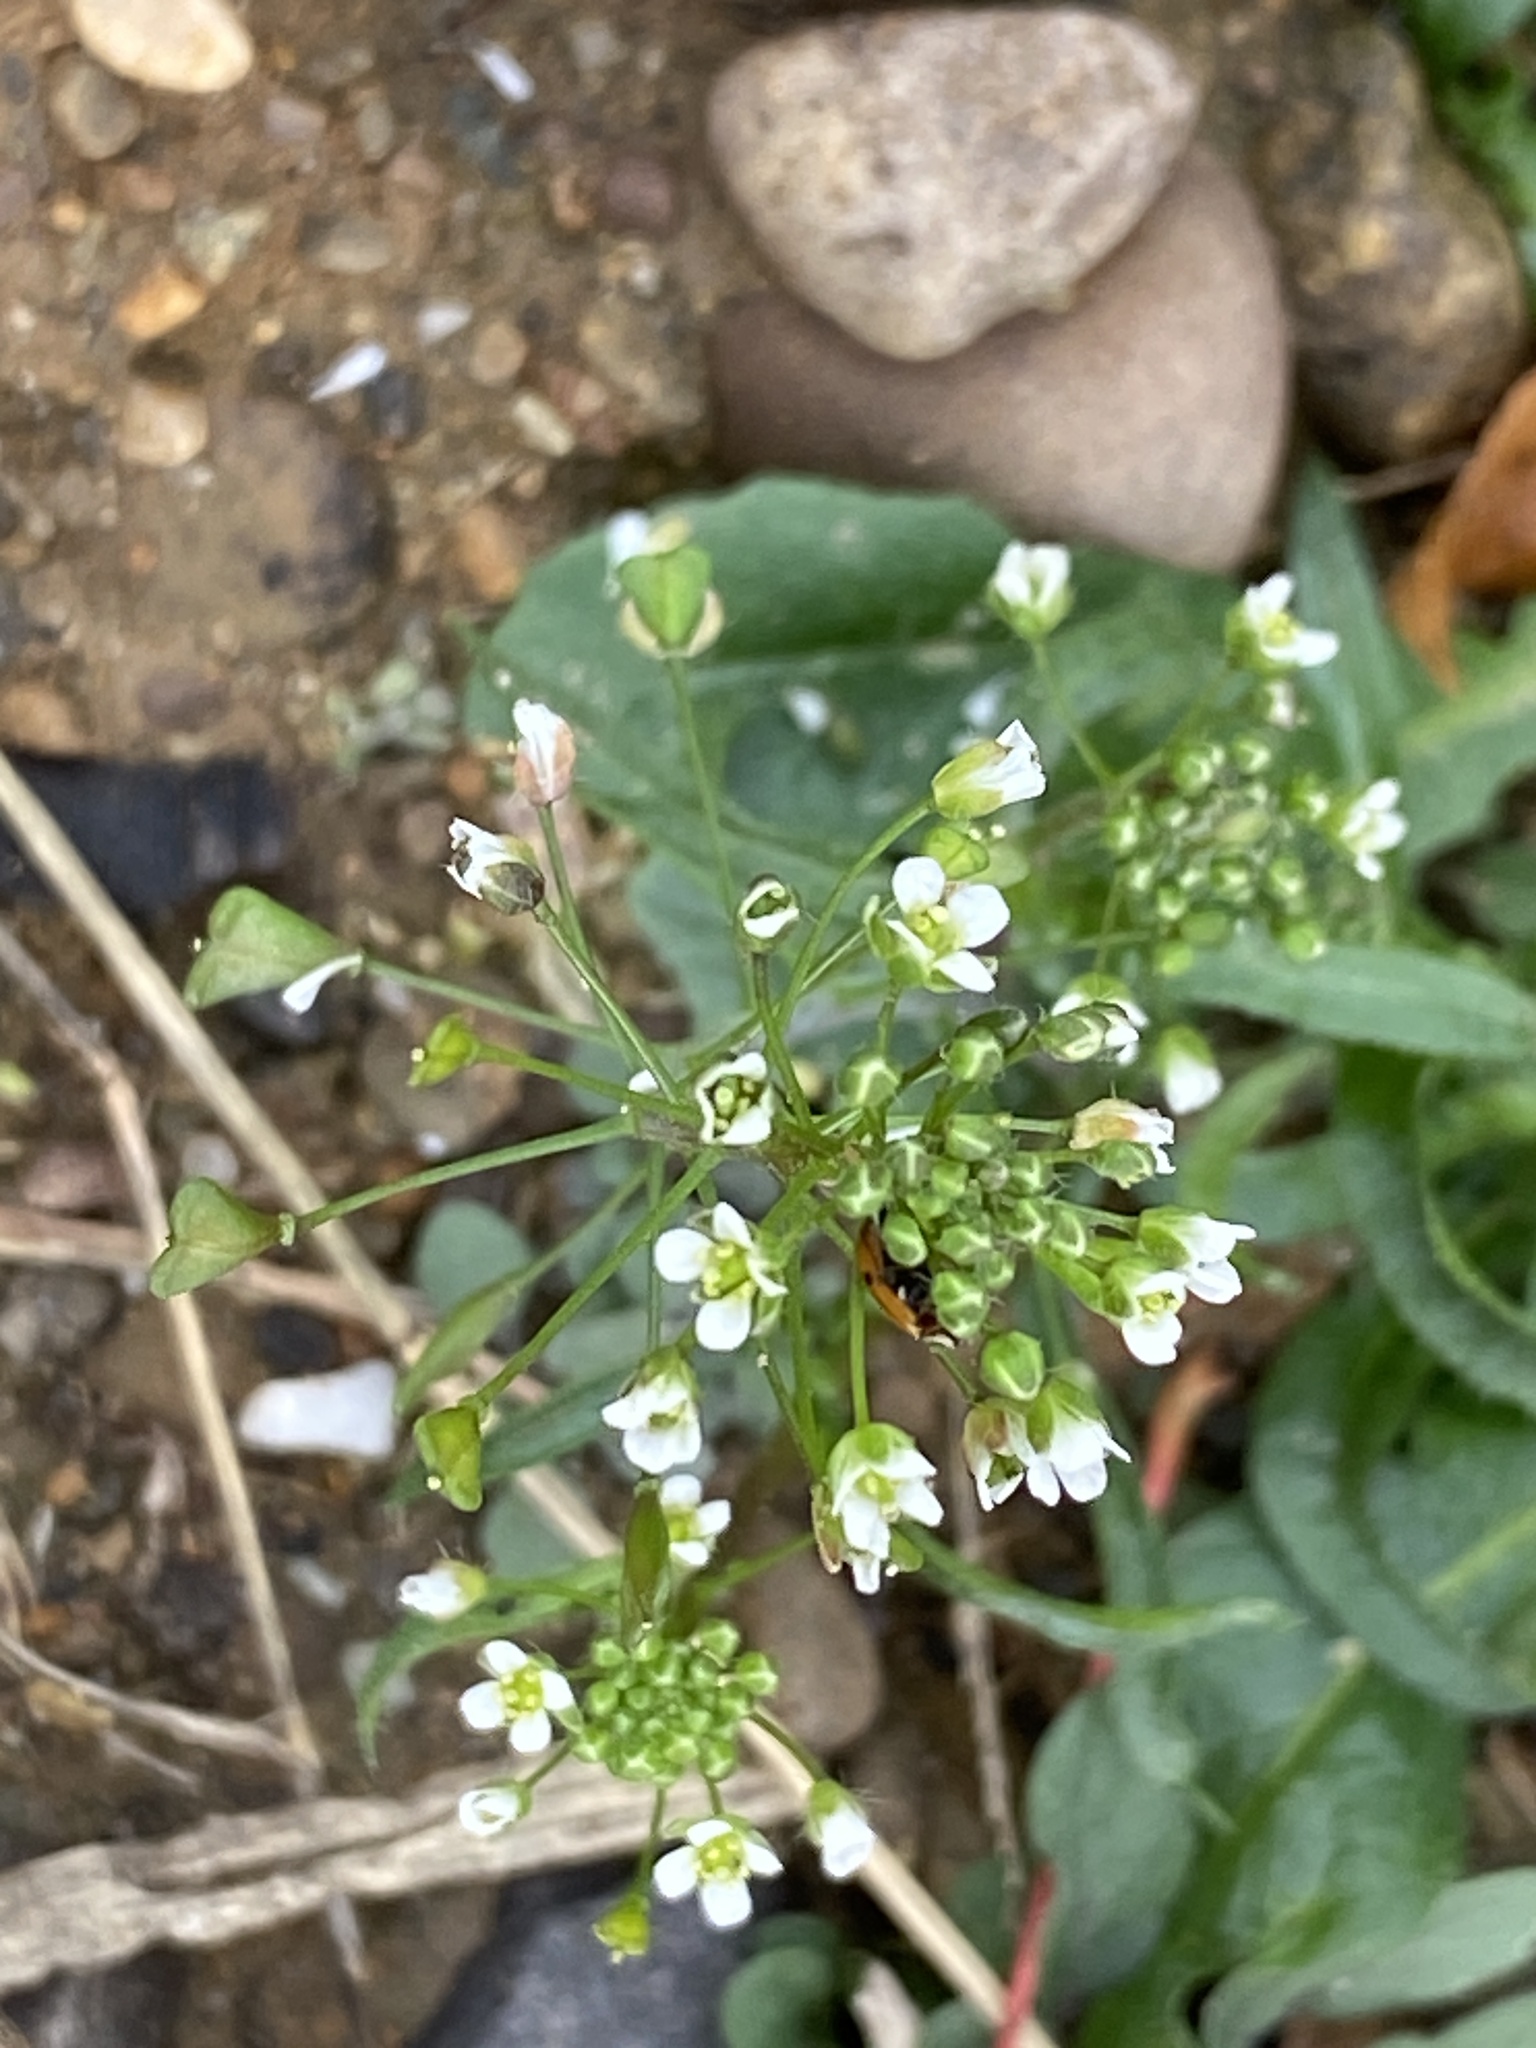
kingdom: Plantae
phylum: Tracheophyta
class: Magnoliopsida
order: Brassicales
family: Brassicaceae
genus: Capsella
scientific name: Capsella bursa-pastoris
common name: Shepherd's purse
